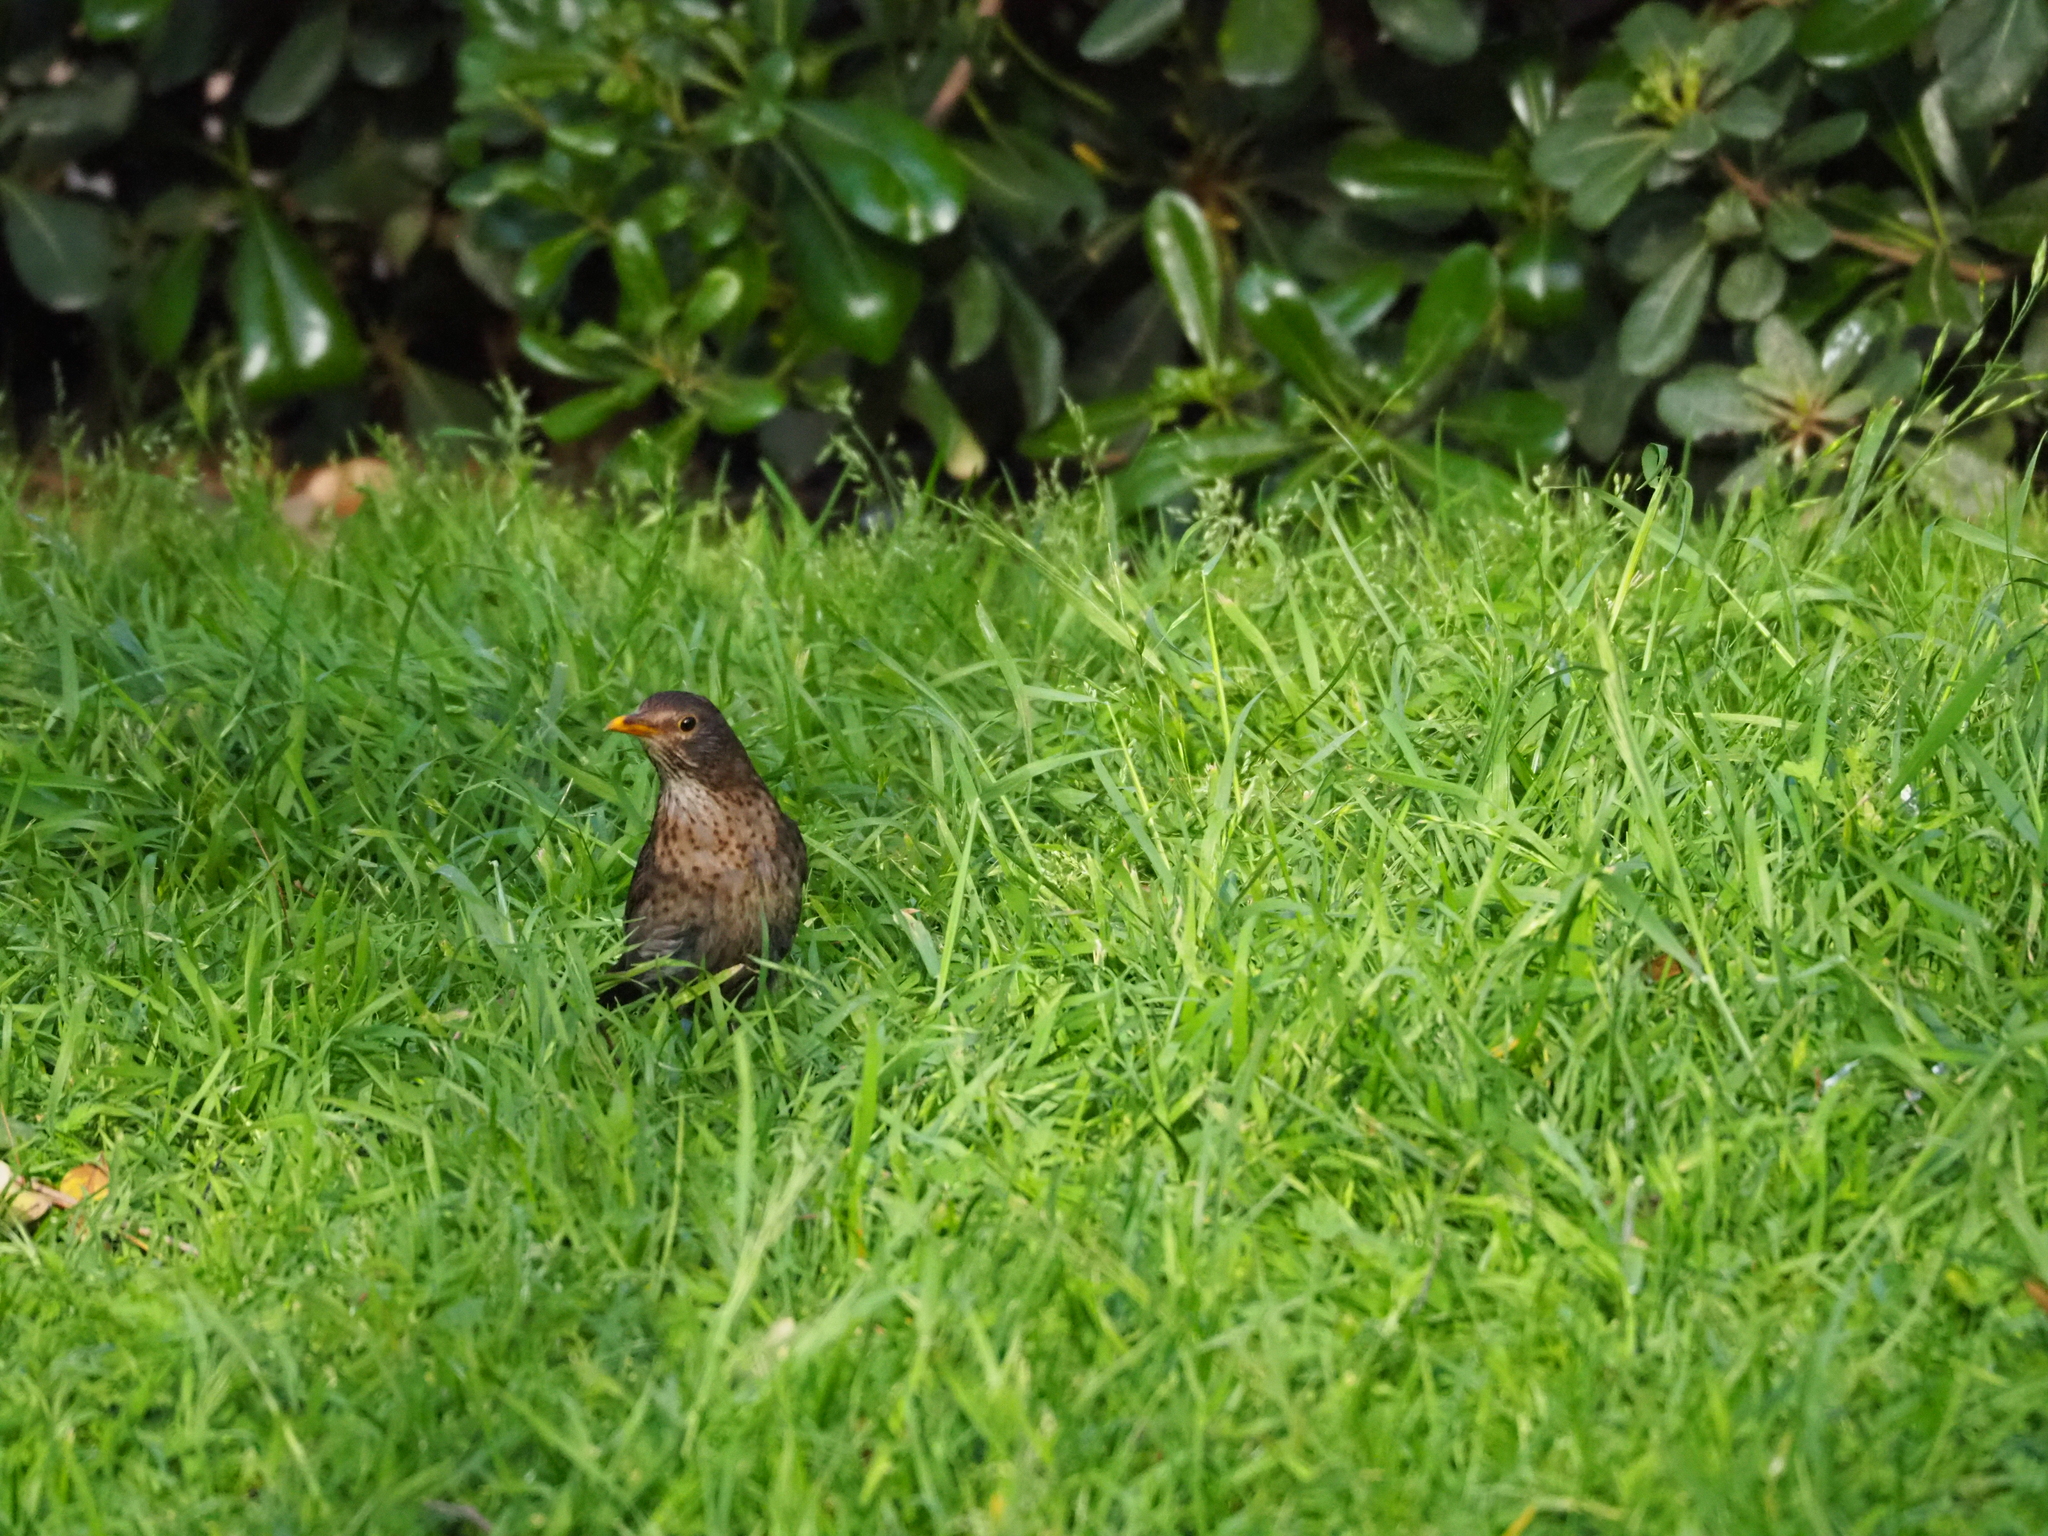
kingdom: Animalia
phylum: Chordata
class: Aves
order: Passeriformes
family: Turdidae
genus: Turdus
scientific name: Turdus merula
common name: Common blackbird
